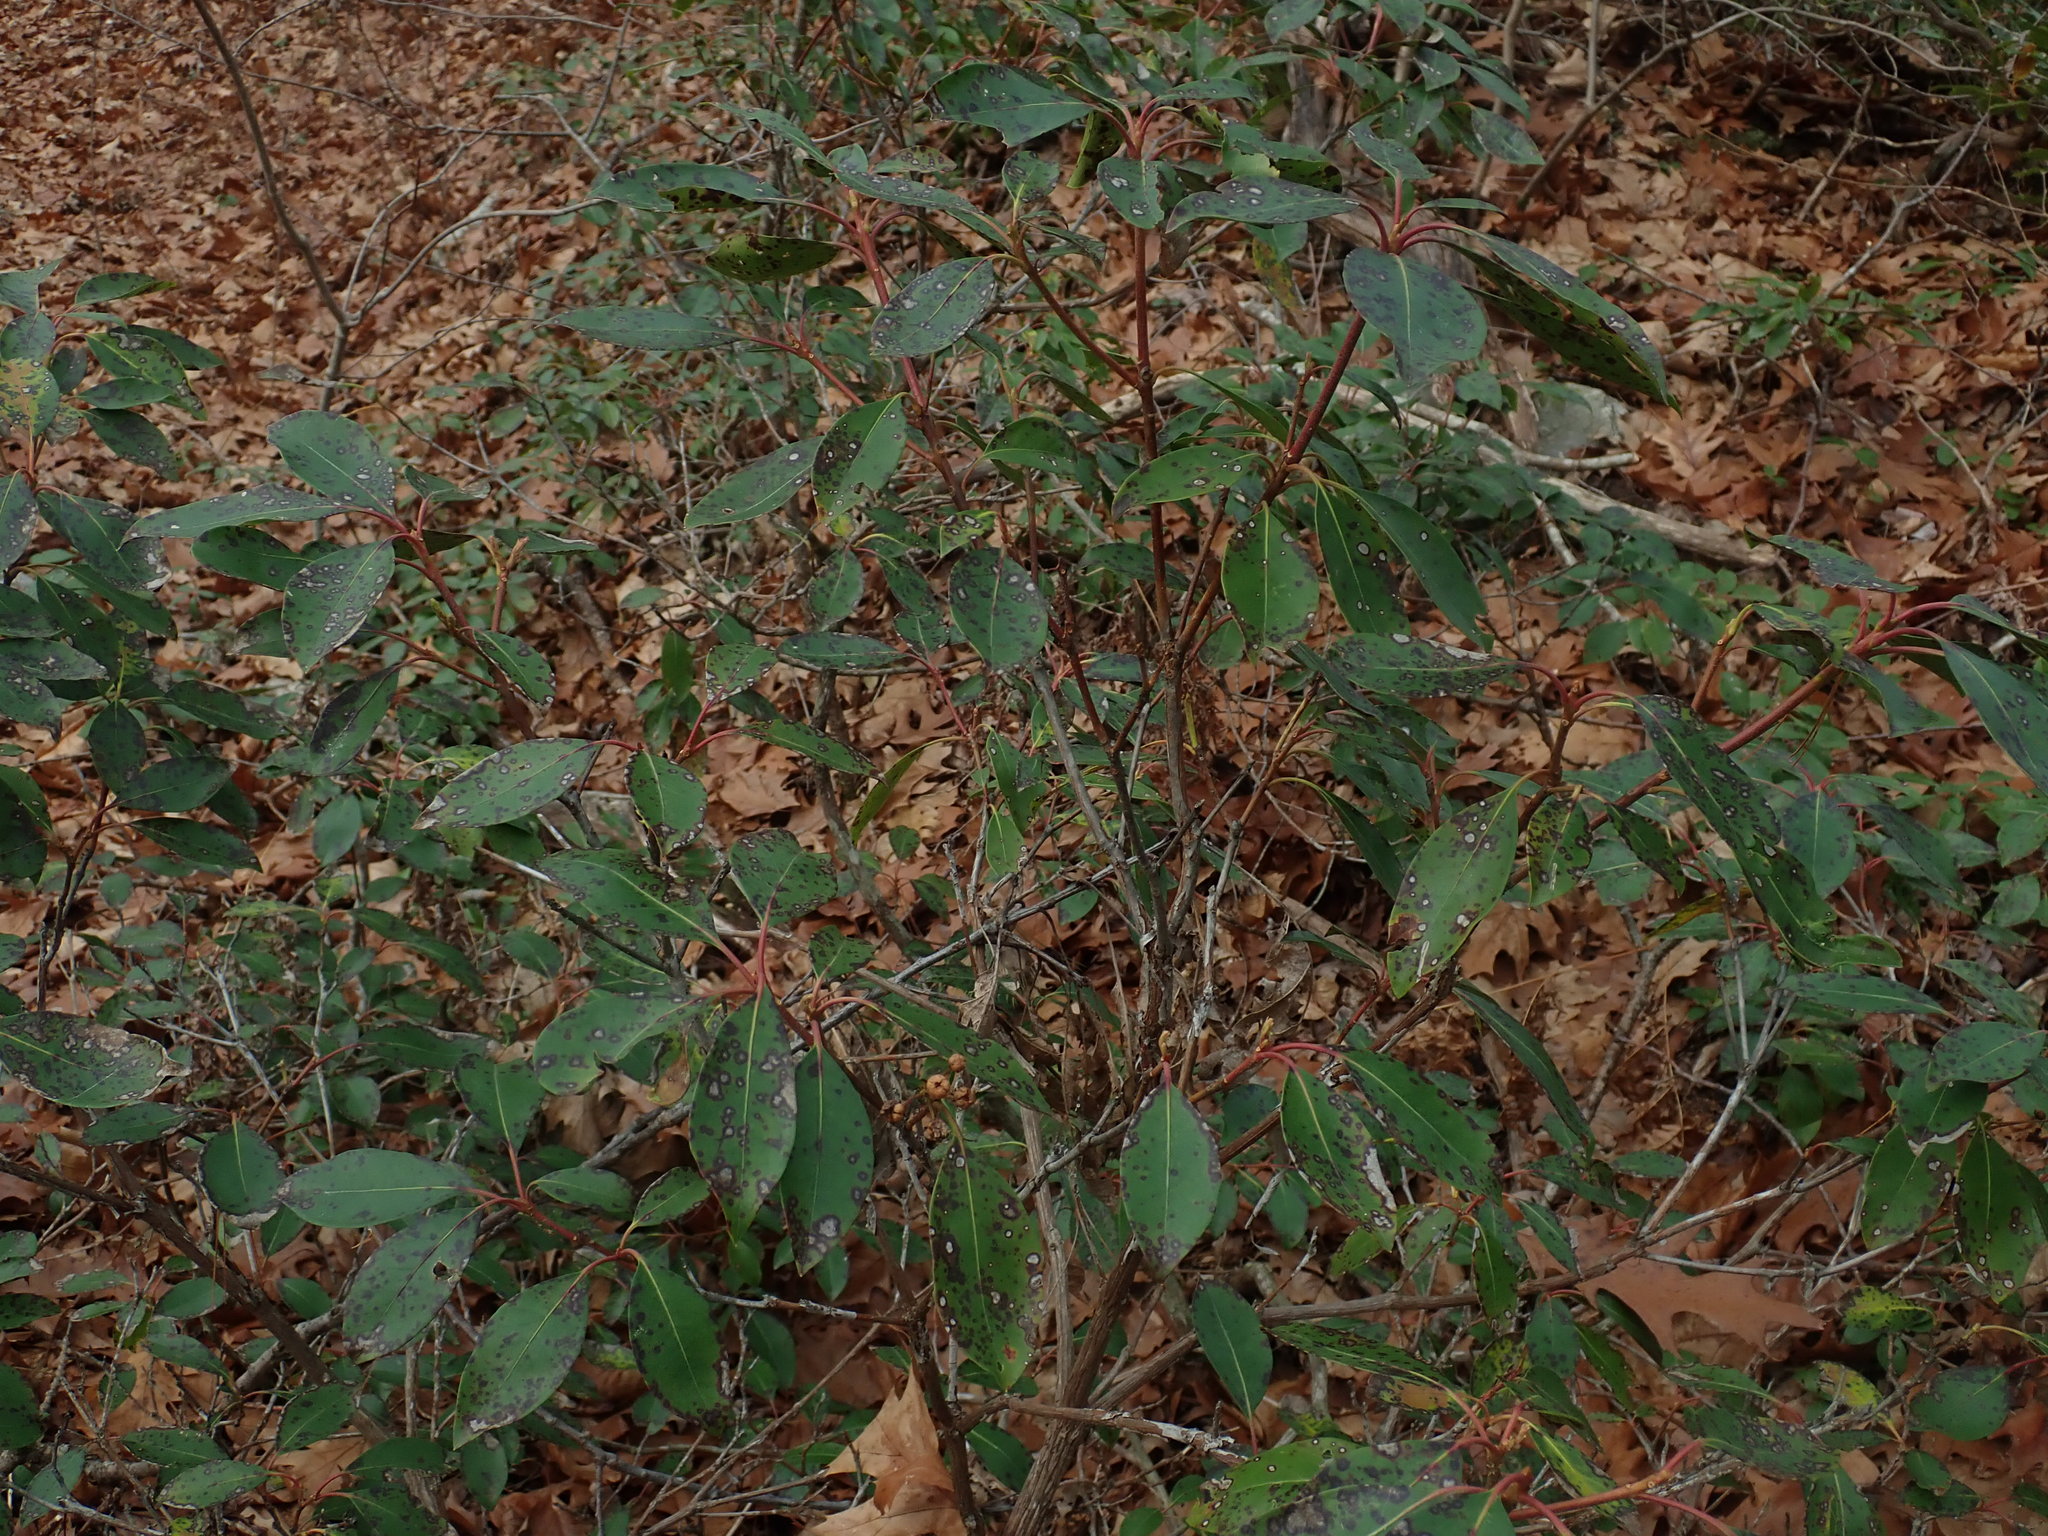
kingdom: Plantae
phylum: Tracheophyta
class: Magnoliopsida
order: Ericales
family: Ericaceae
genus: Kalmia
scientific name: Kalmia latifolia
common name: Mountain-laurel
